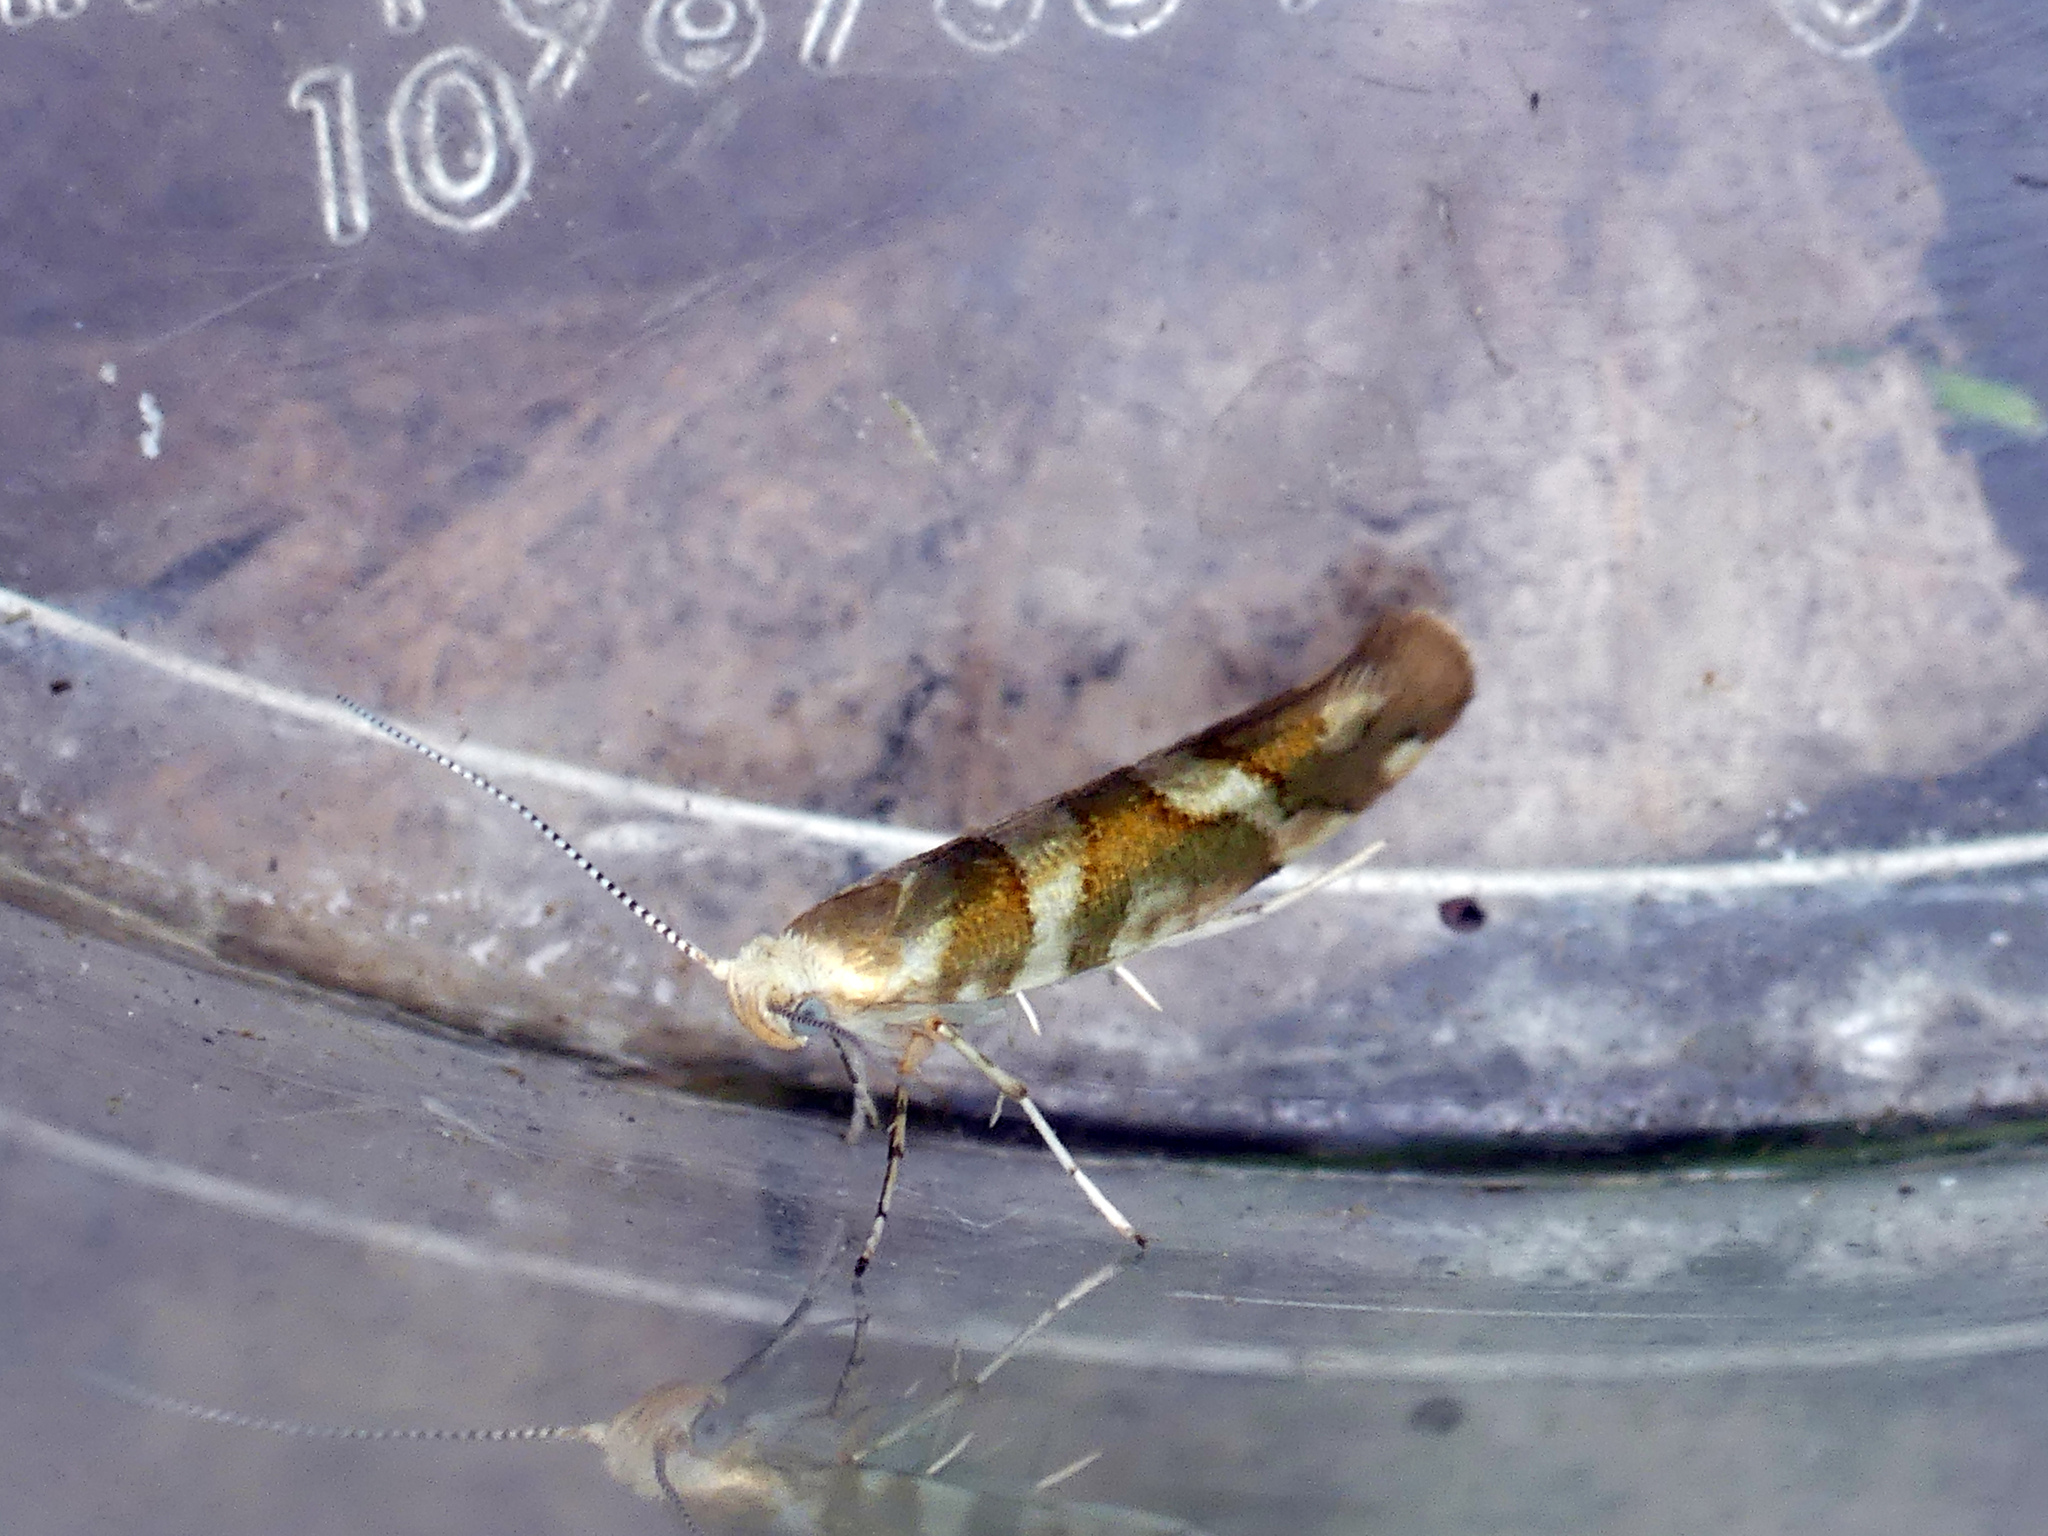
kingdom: Animalia
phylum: Arthropoda
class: Insecta
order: Lepidoptera
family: Argyresthiidae
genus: Argyresthia
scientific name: Argyresthia goedartella
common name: Golden argent
